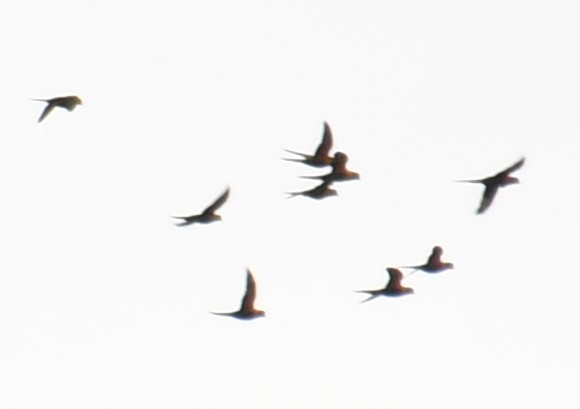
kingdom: Animalia
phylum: Chordata
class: Aves
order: Psittaciformes
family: Psittacidae
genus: Trichoglossus
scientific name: Trichoglossus haematodus
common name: Coconut lorikeet
